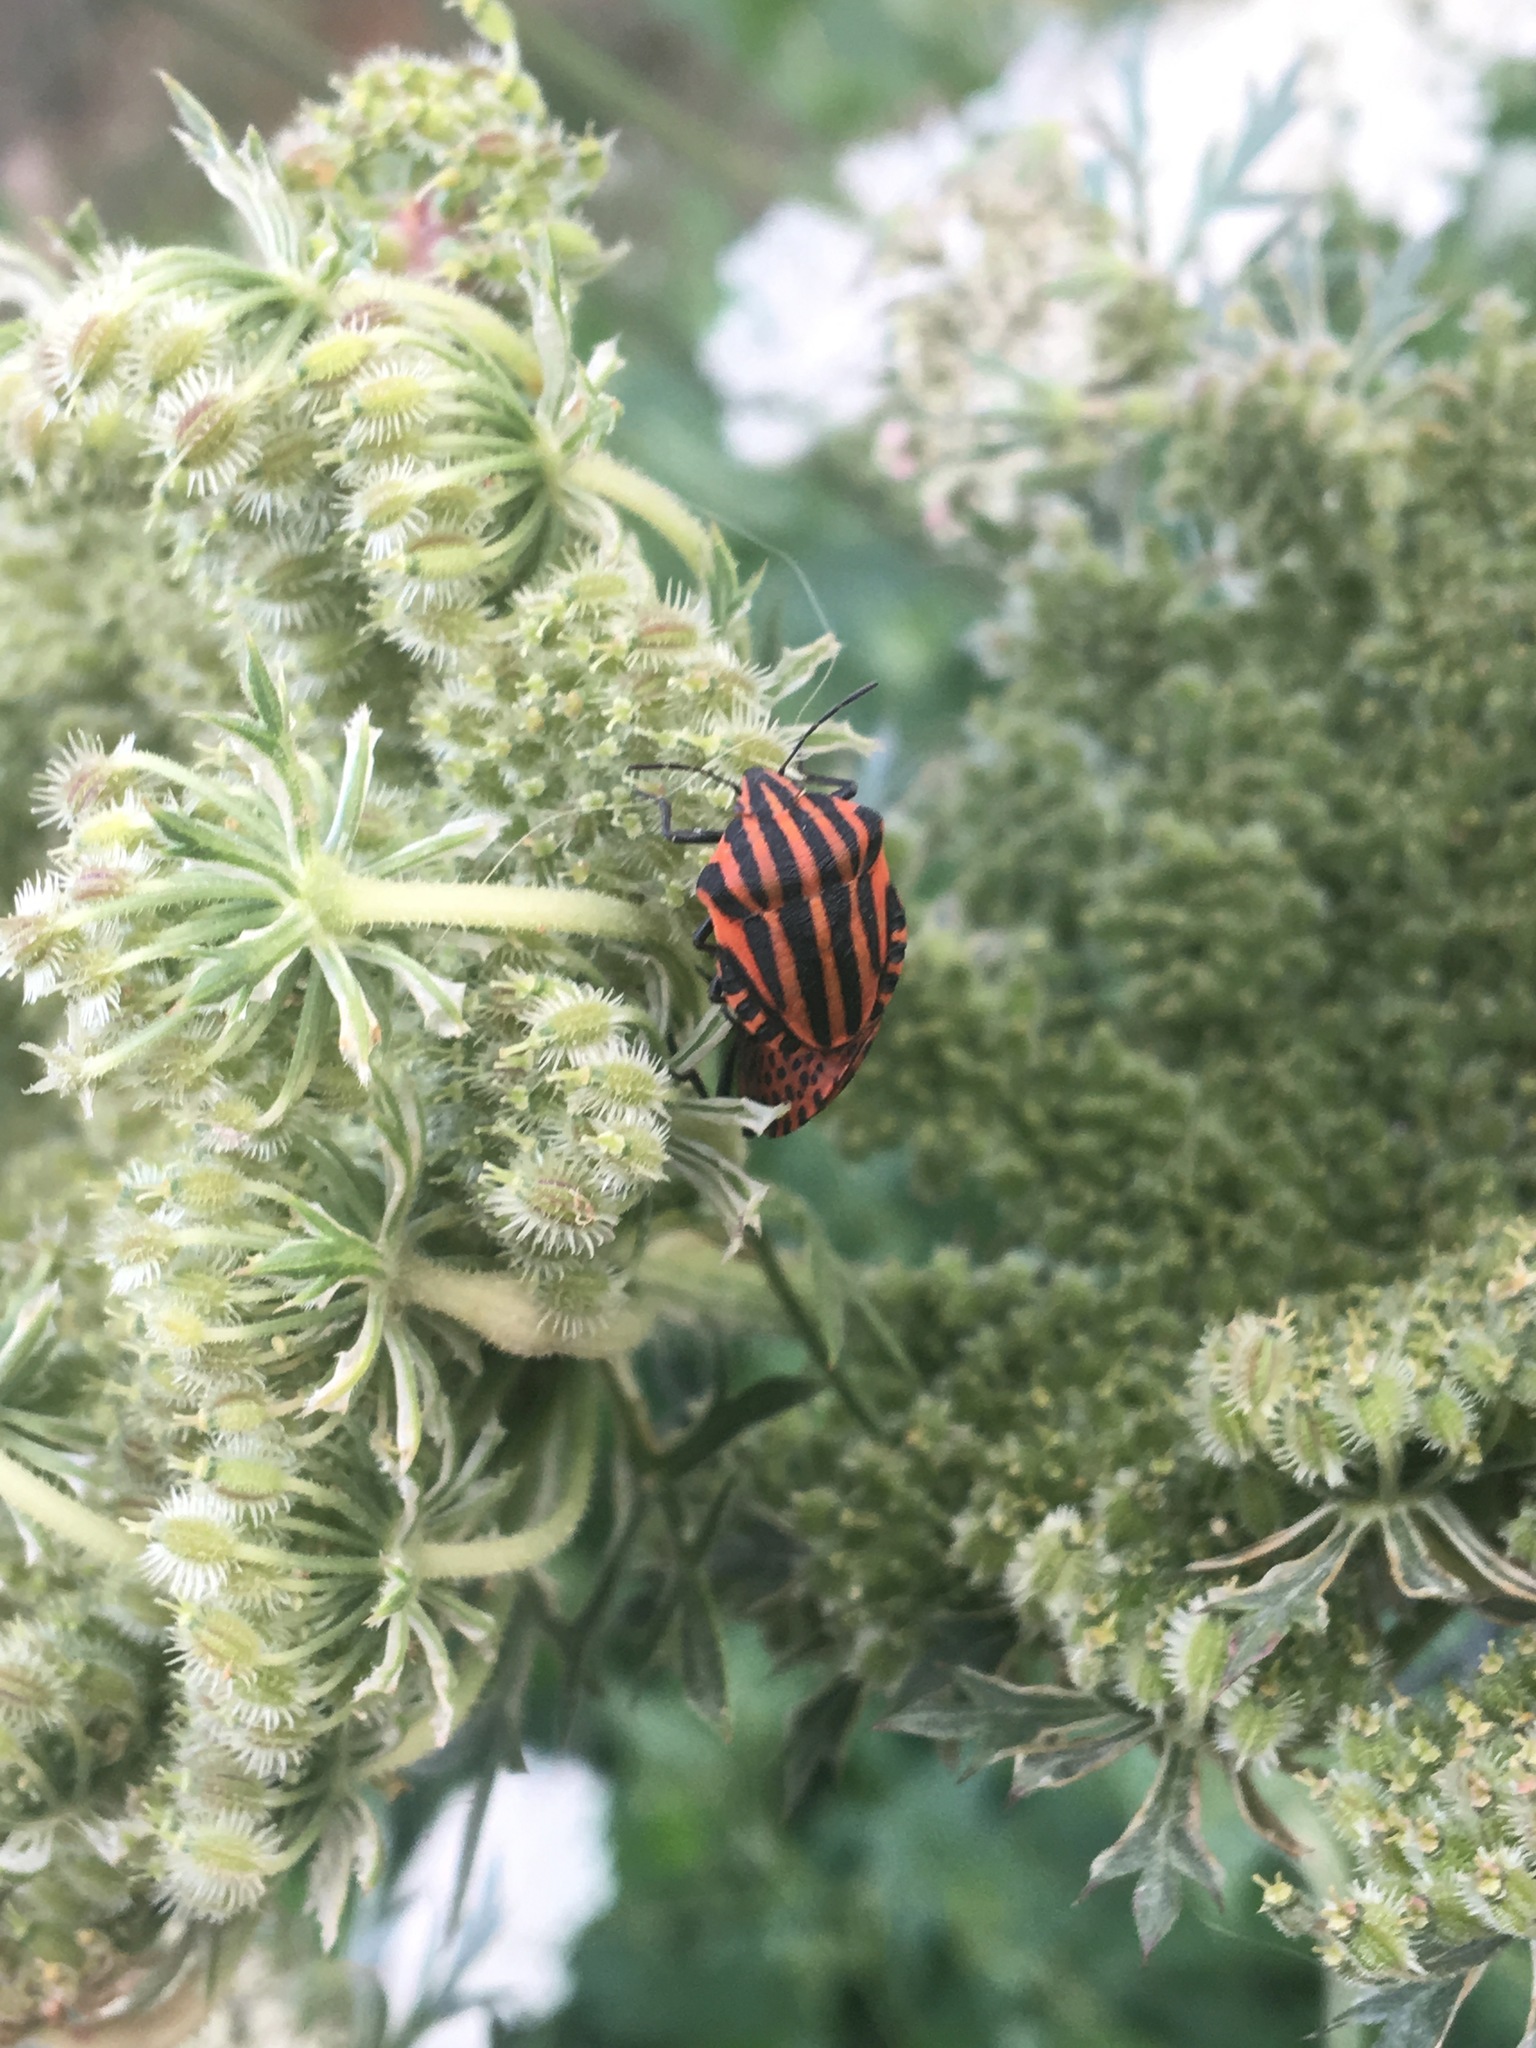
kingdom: Animalia
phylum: Arthropoda
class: Insecta
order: Hemiptera
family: Pentatomidae
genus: Graphosoma
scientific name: Graphosoma italicum
